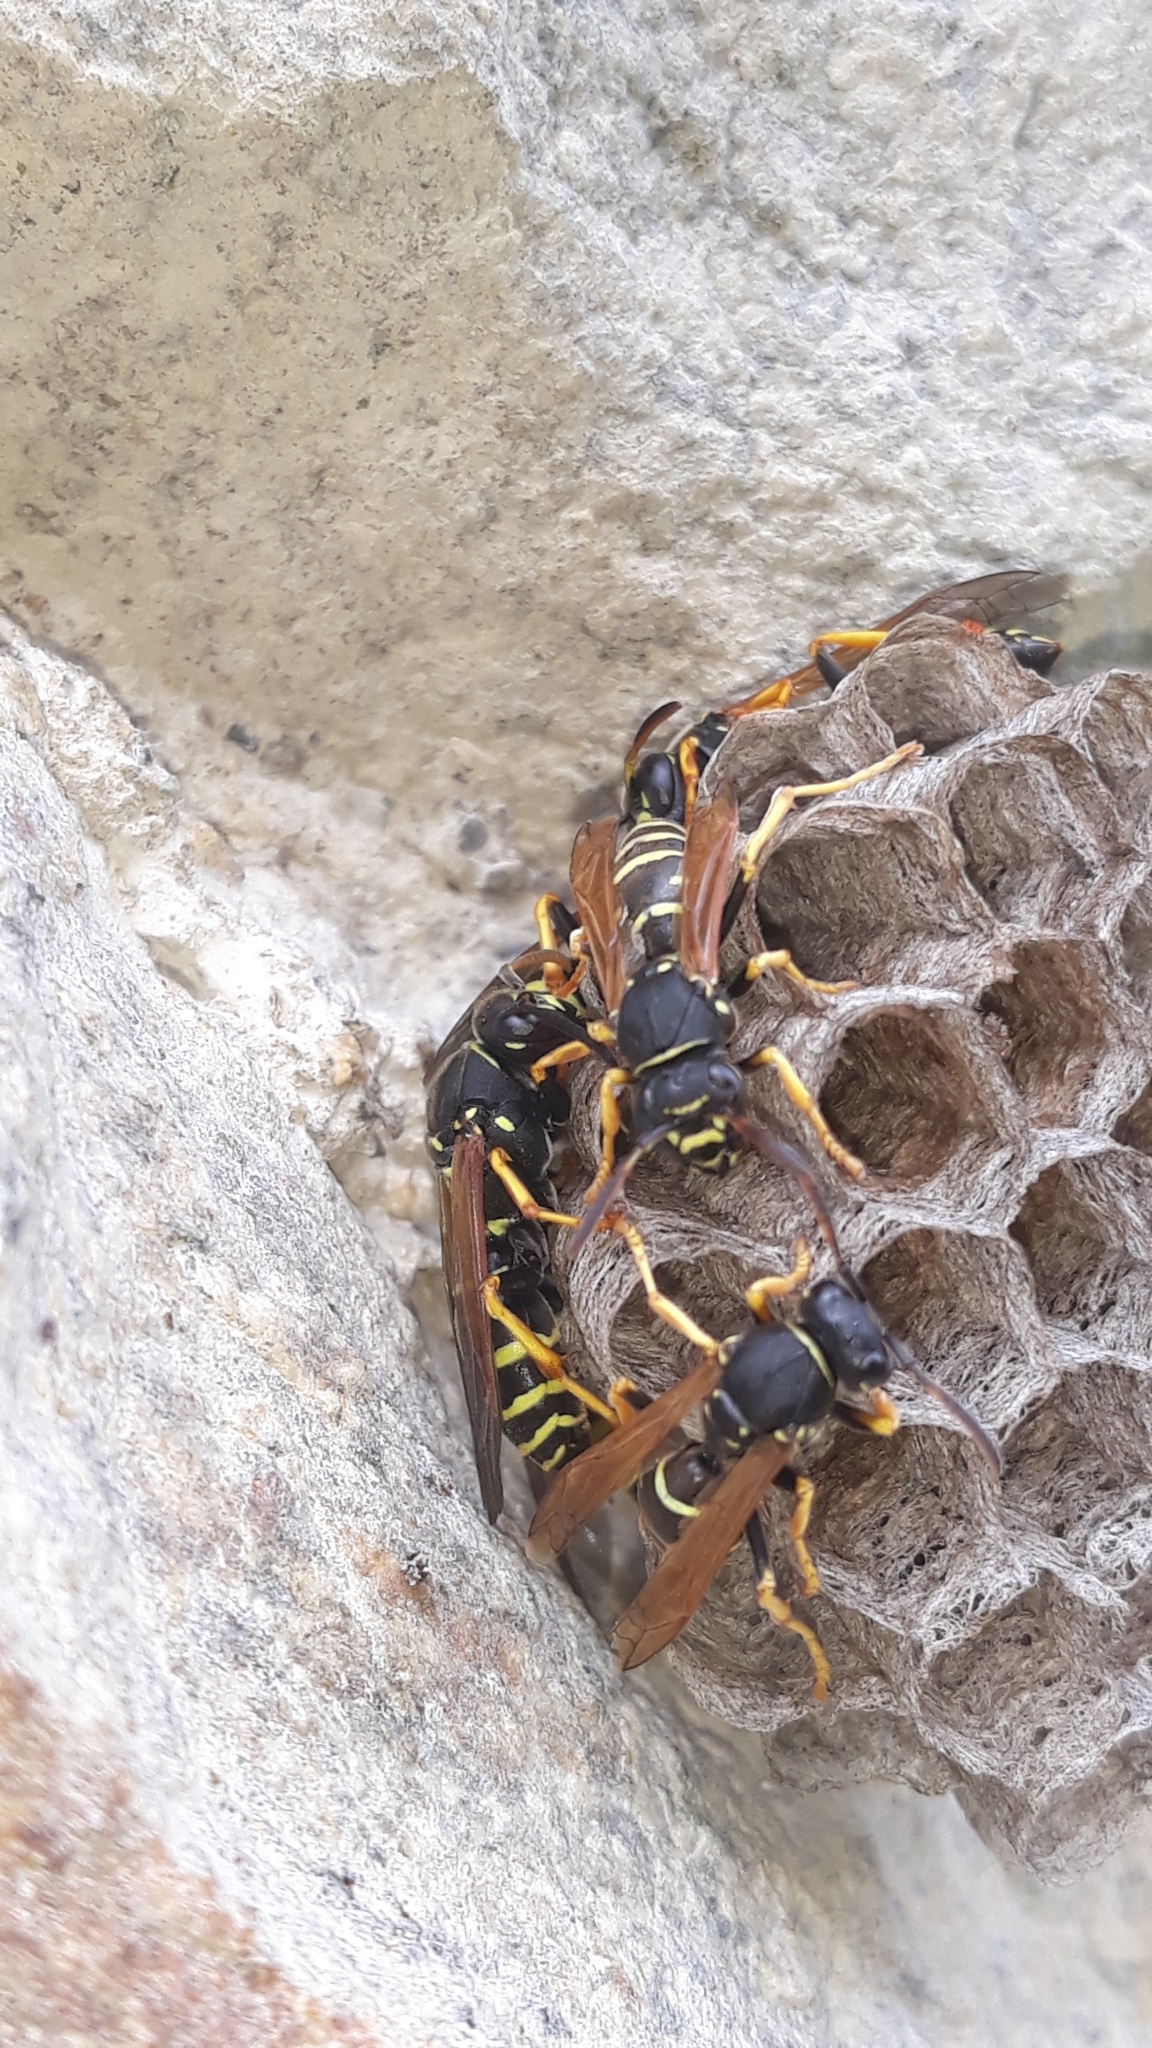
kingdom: Animalia
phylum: Arthropoda
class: Insecta
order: Hymenoptera
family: Eumenidae
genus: Polistes
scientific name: Polistes biglumis
